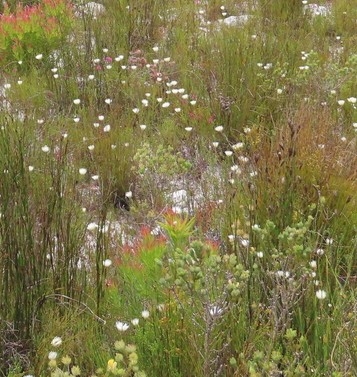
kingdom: Plantae
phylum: Tracheophyta
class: Magnoliopsida
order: Asterales
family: Asteraceae
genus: Edmondia
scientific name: Edmondia sesamoides
